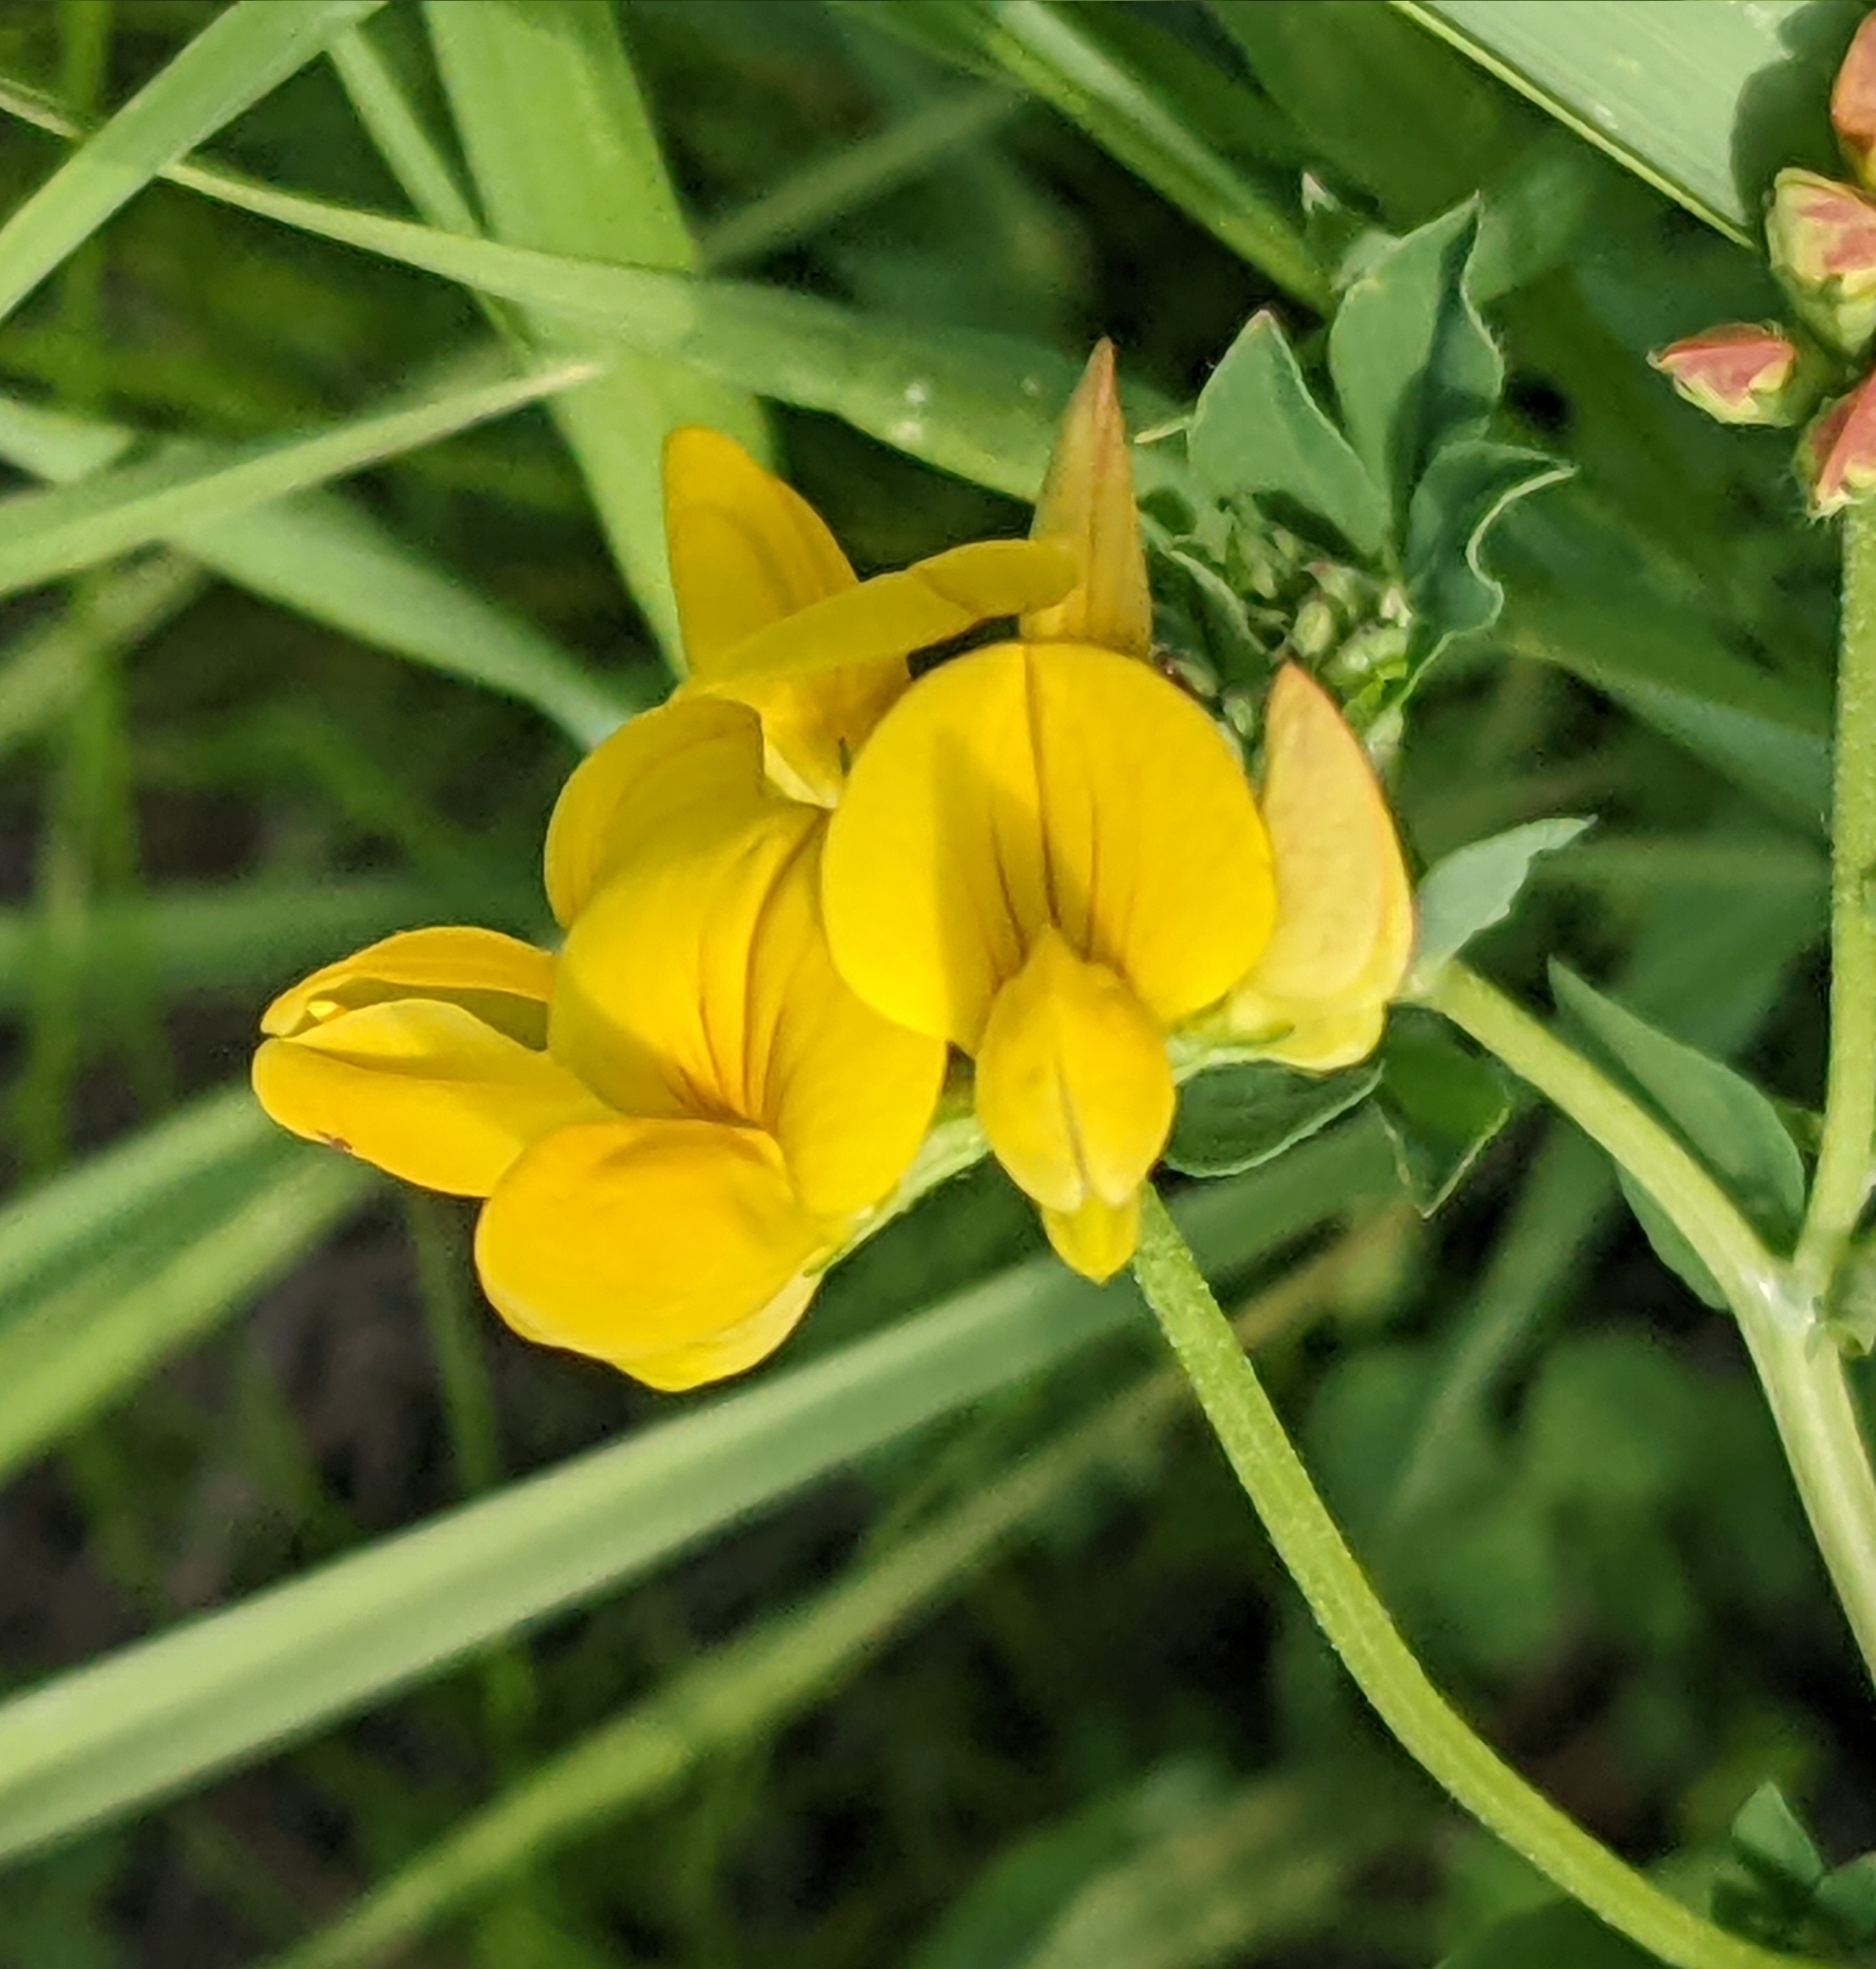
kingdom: Plantae
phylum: Tracheophyta
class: Magnoliopsida
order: Fabales
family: Fabaceae
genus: Lotus
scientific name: Lotus corniculatus
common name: Common bird's-foot-trefoil
